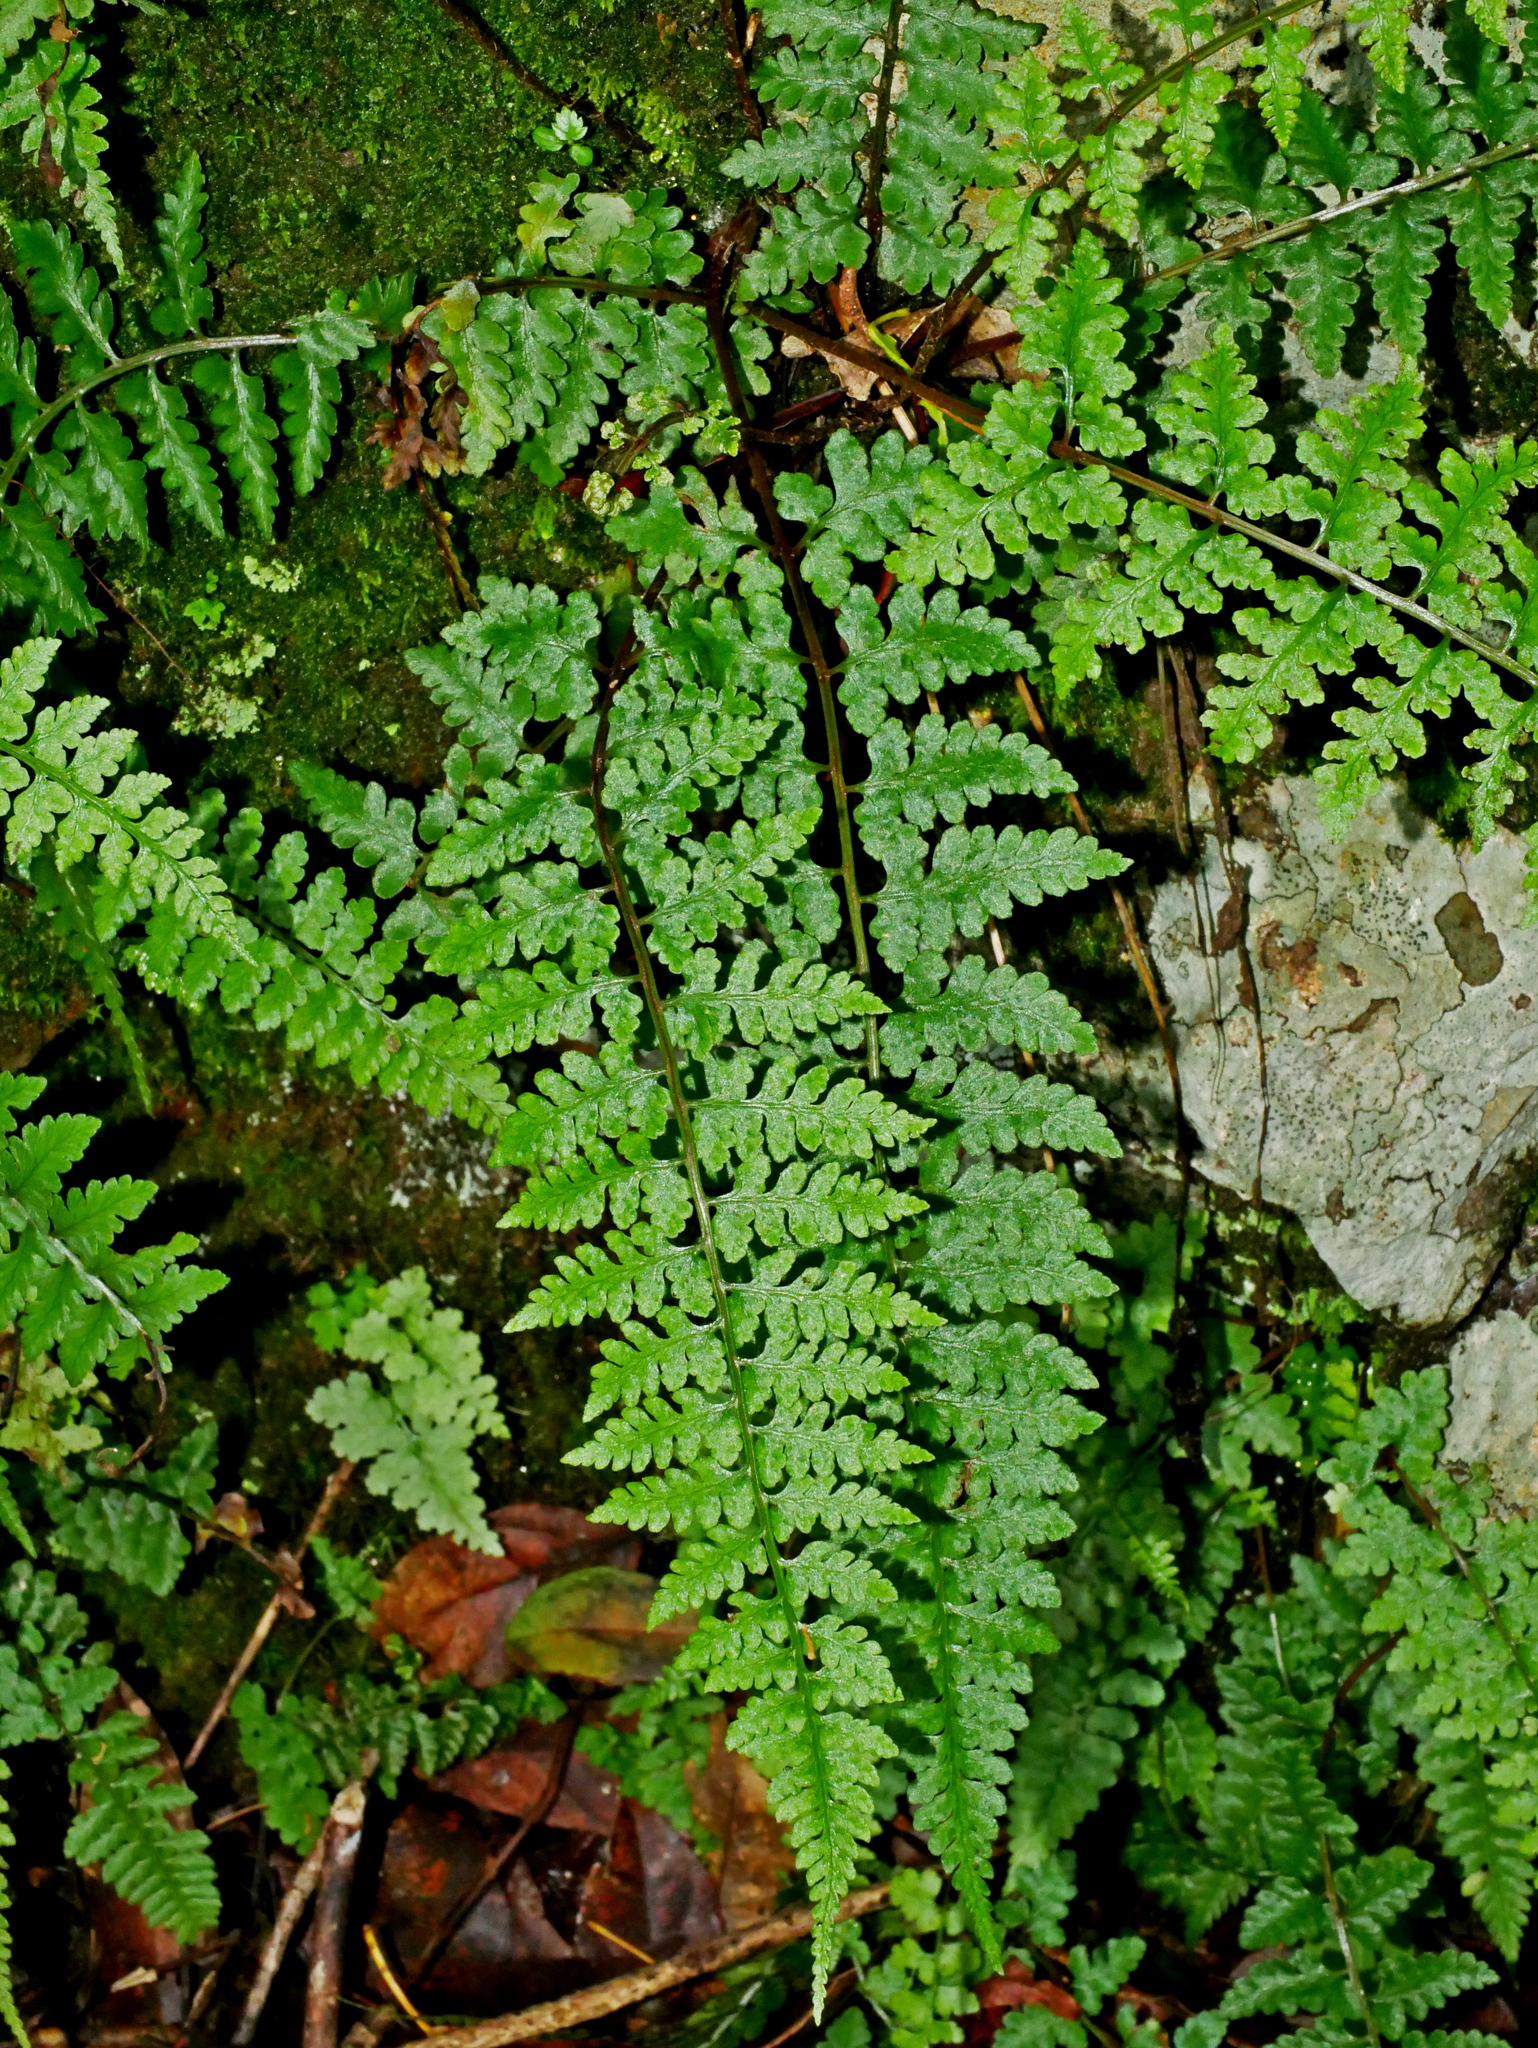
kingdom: Plantae
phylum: Tracheophyta
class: Polypodiopsida
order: Polypodiales
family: Athyriaceae
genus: Athyrium
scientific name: Athyrium anisopterum
